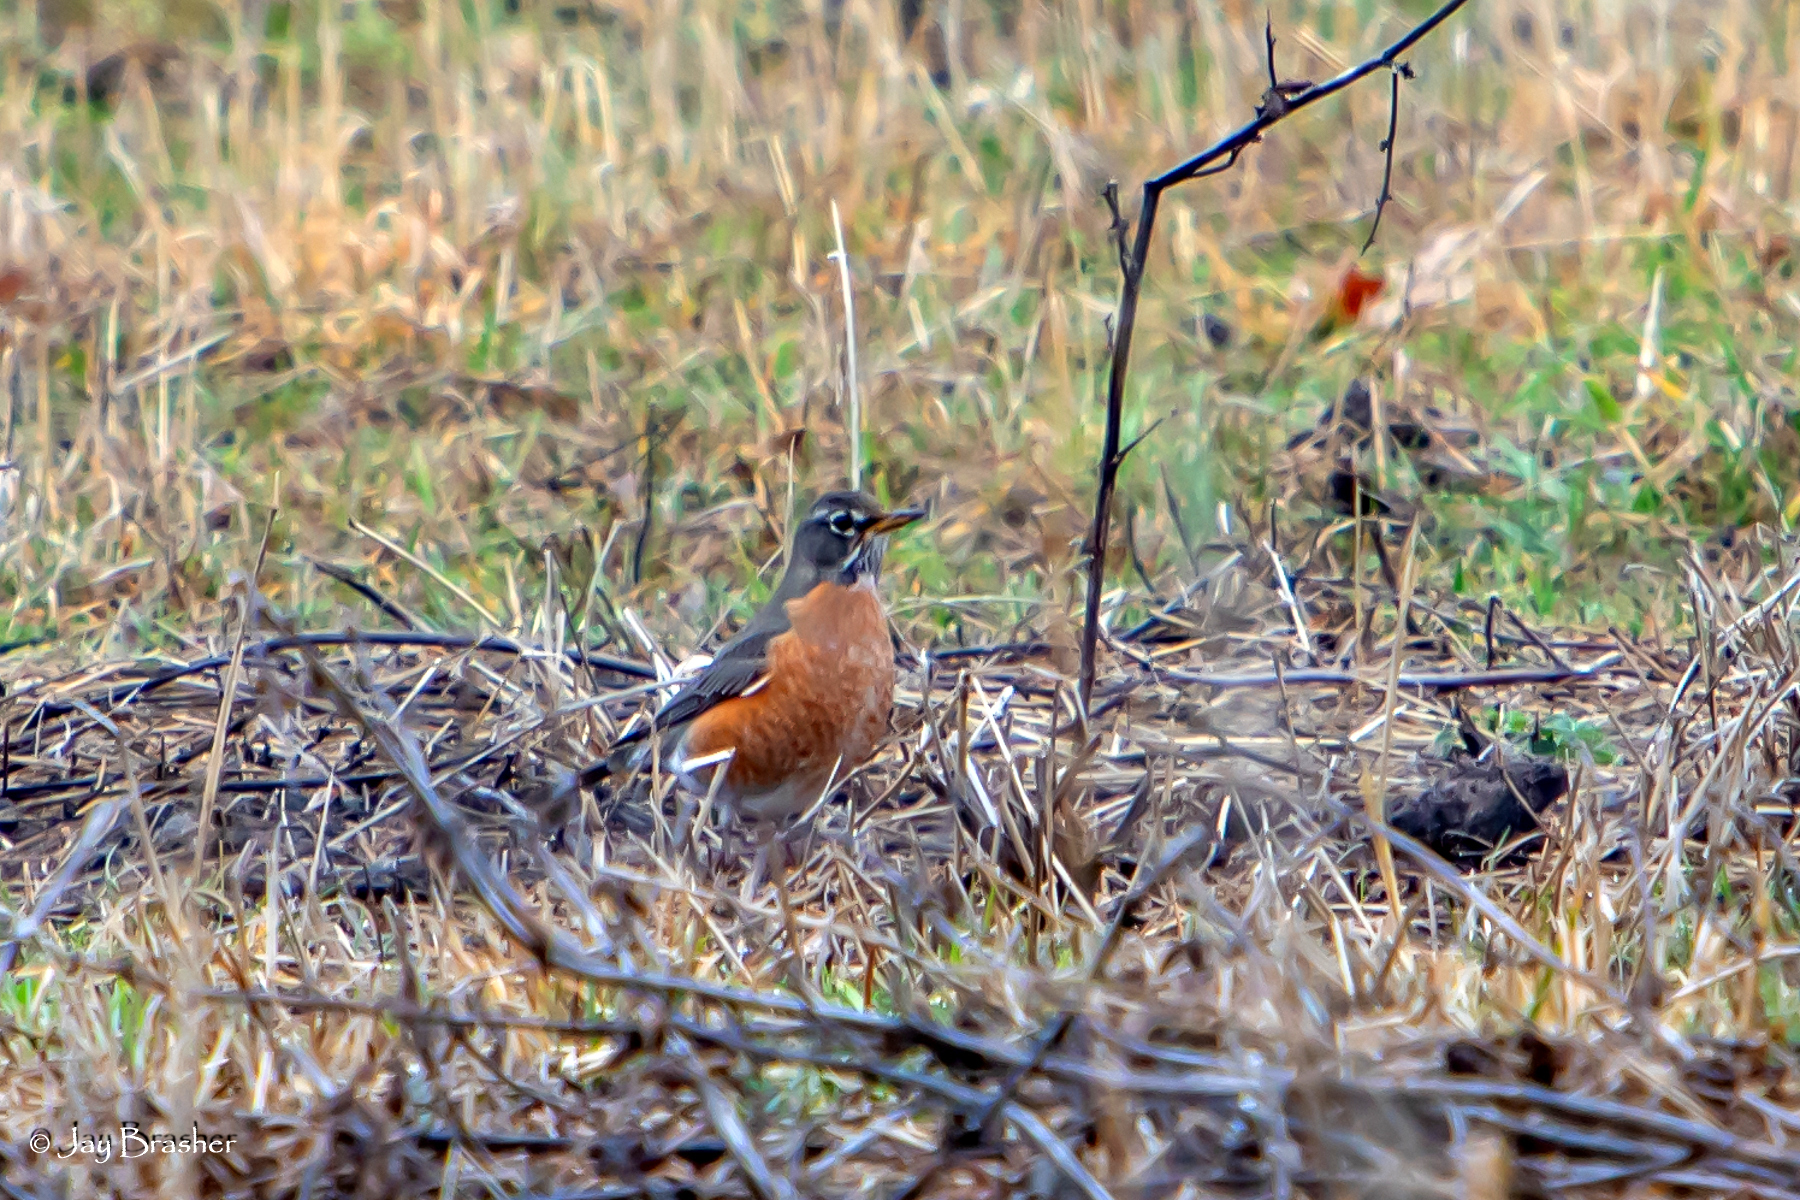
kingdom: Animalia
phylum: Chordata
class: Aves
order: Passeriformes
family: Turdidae
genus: Turdus
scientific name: Turdus migratorius
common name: American robin
